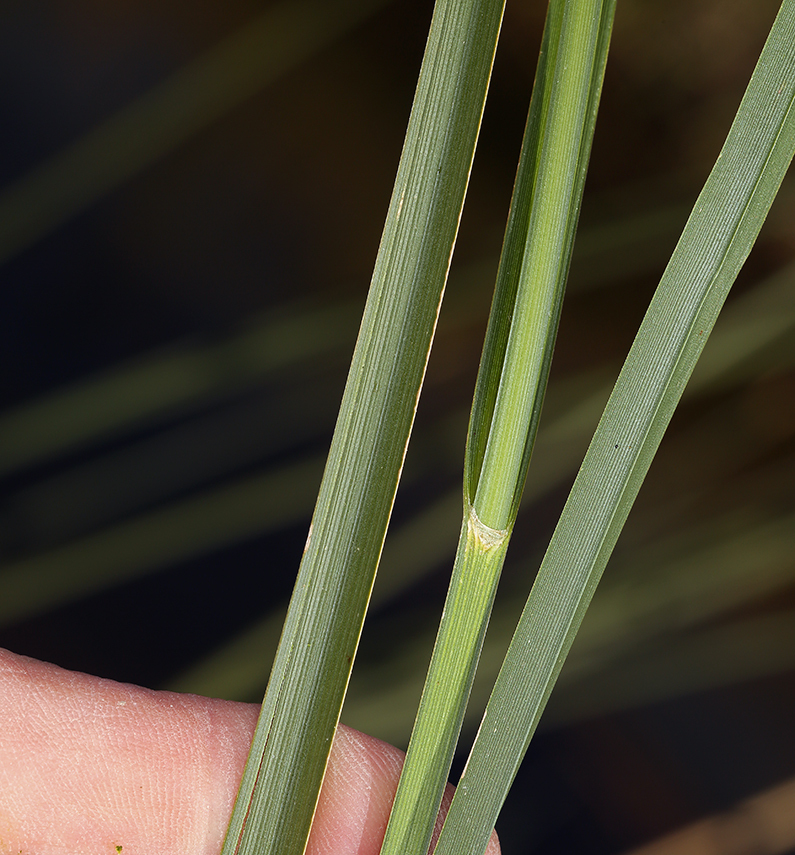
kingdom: Plantae
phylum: Tracheophyta
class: Liliopsida
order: Poales
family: Cyperaceae
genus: Bolboschoenus
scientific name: Bolboschoenus maritimus
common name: Sea club-rush
